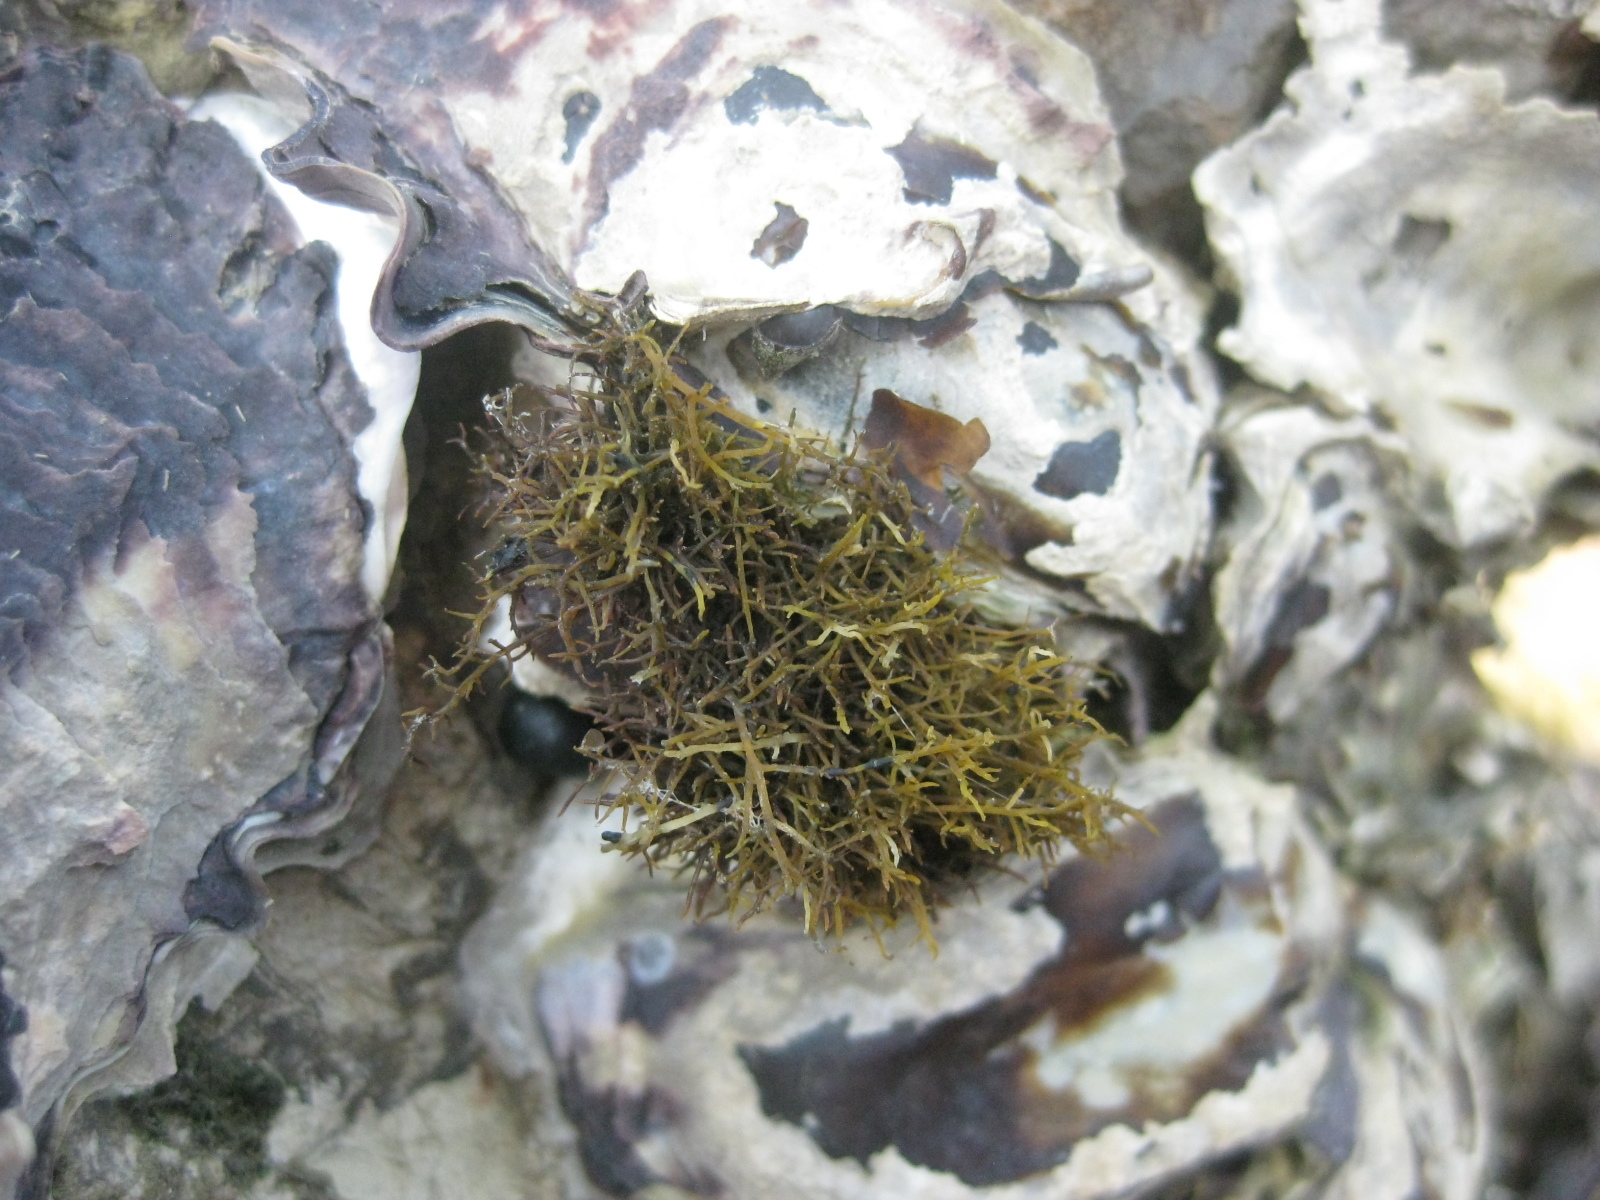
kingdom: Plantae
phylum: Rhodophyta
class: Florideophyceae
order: Gelidiales
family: Gelidiaceae
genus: Gelidium
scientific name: Gelidium caulacantheum
